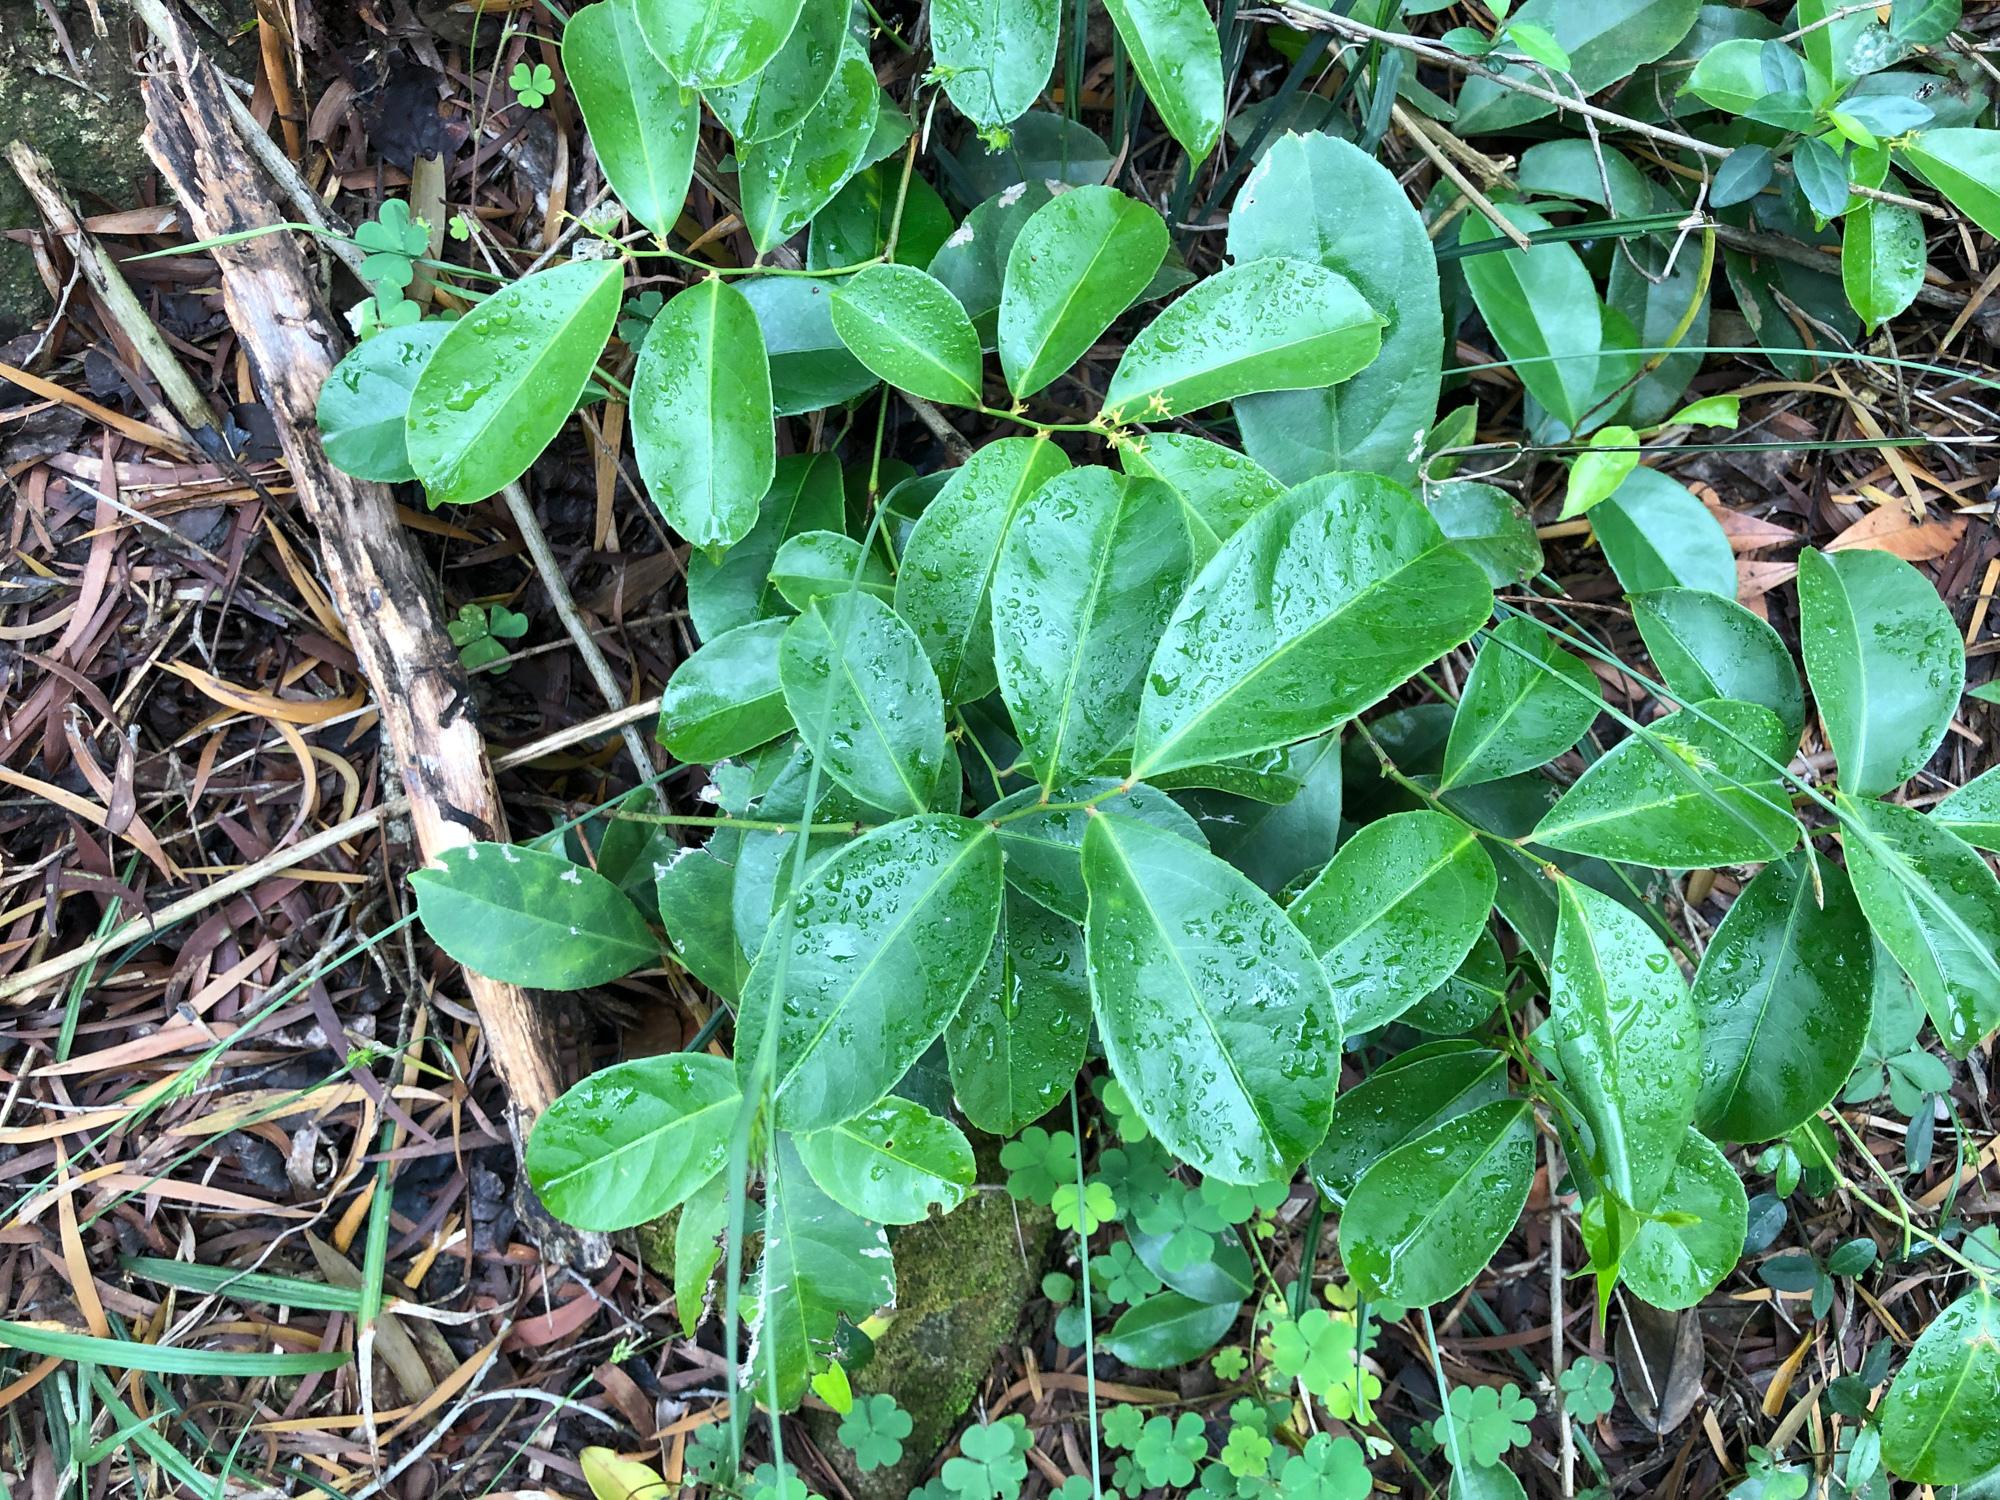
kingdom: Plantae
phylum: Tracheophyta
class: Magnoliopsida
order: Celastrales
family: Celastraceae
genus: Celastrus
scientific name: Celastrus hindsii
